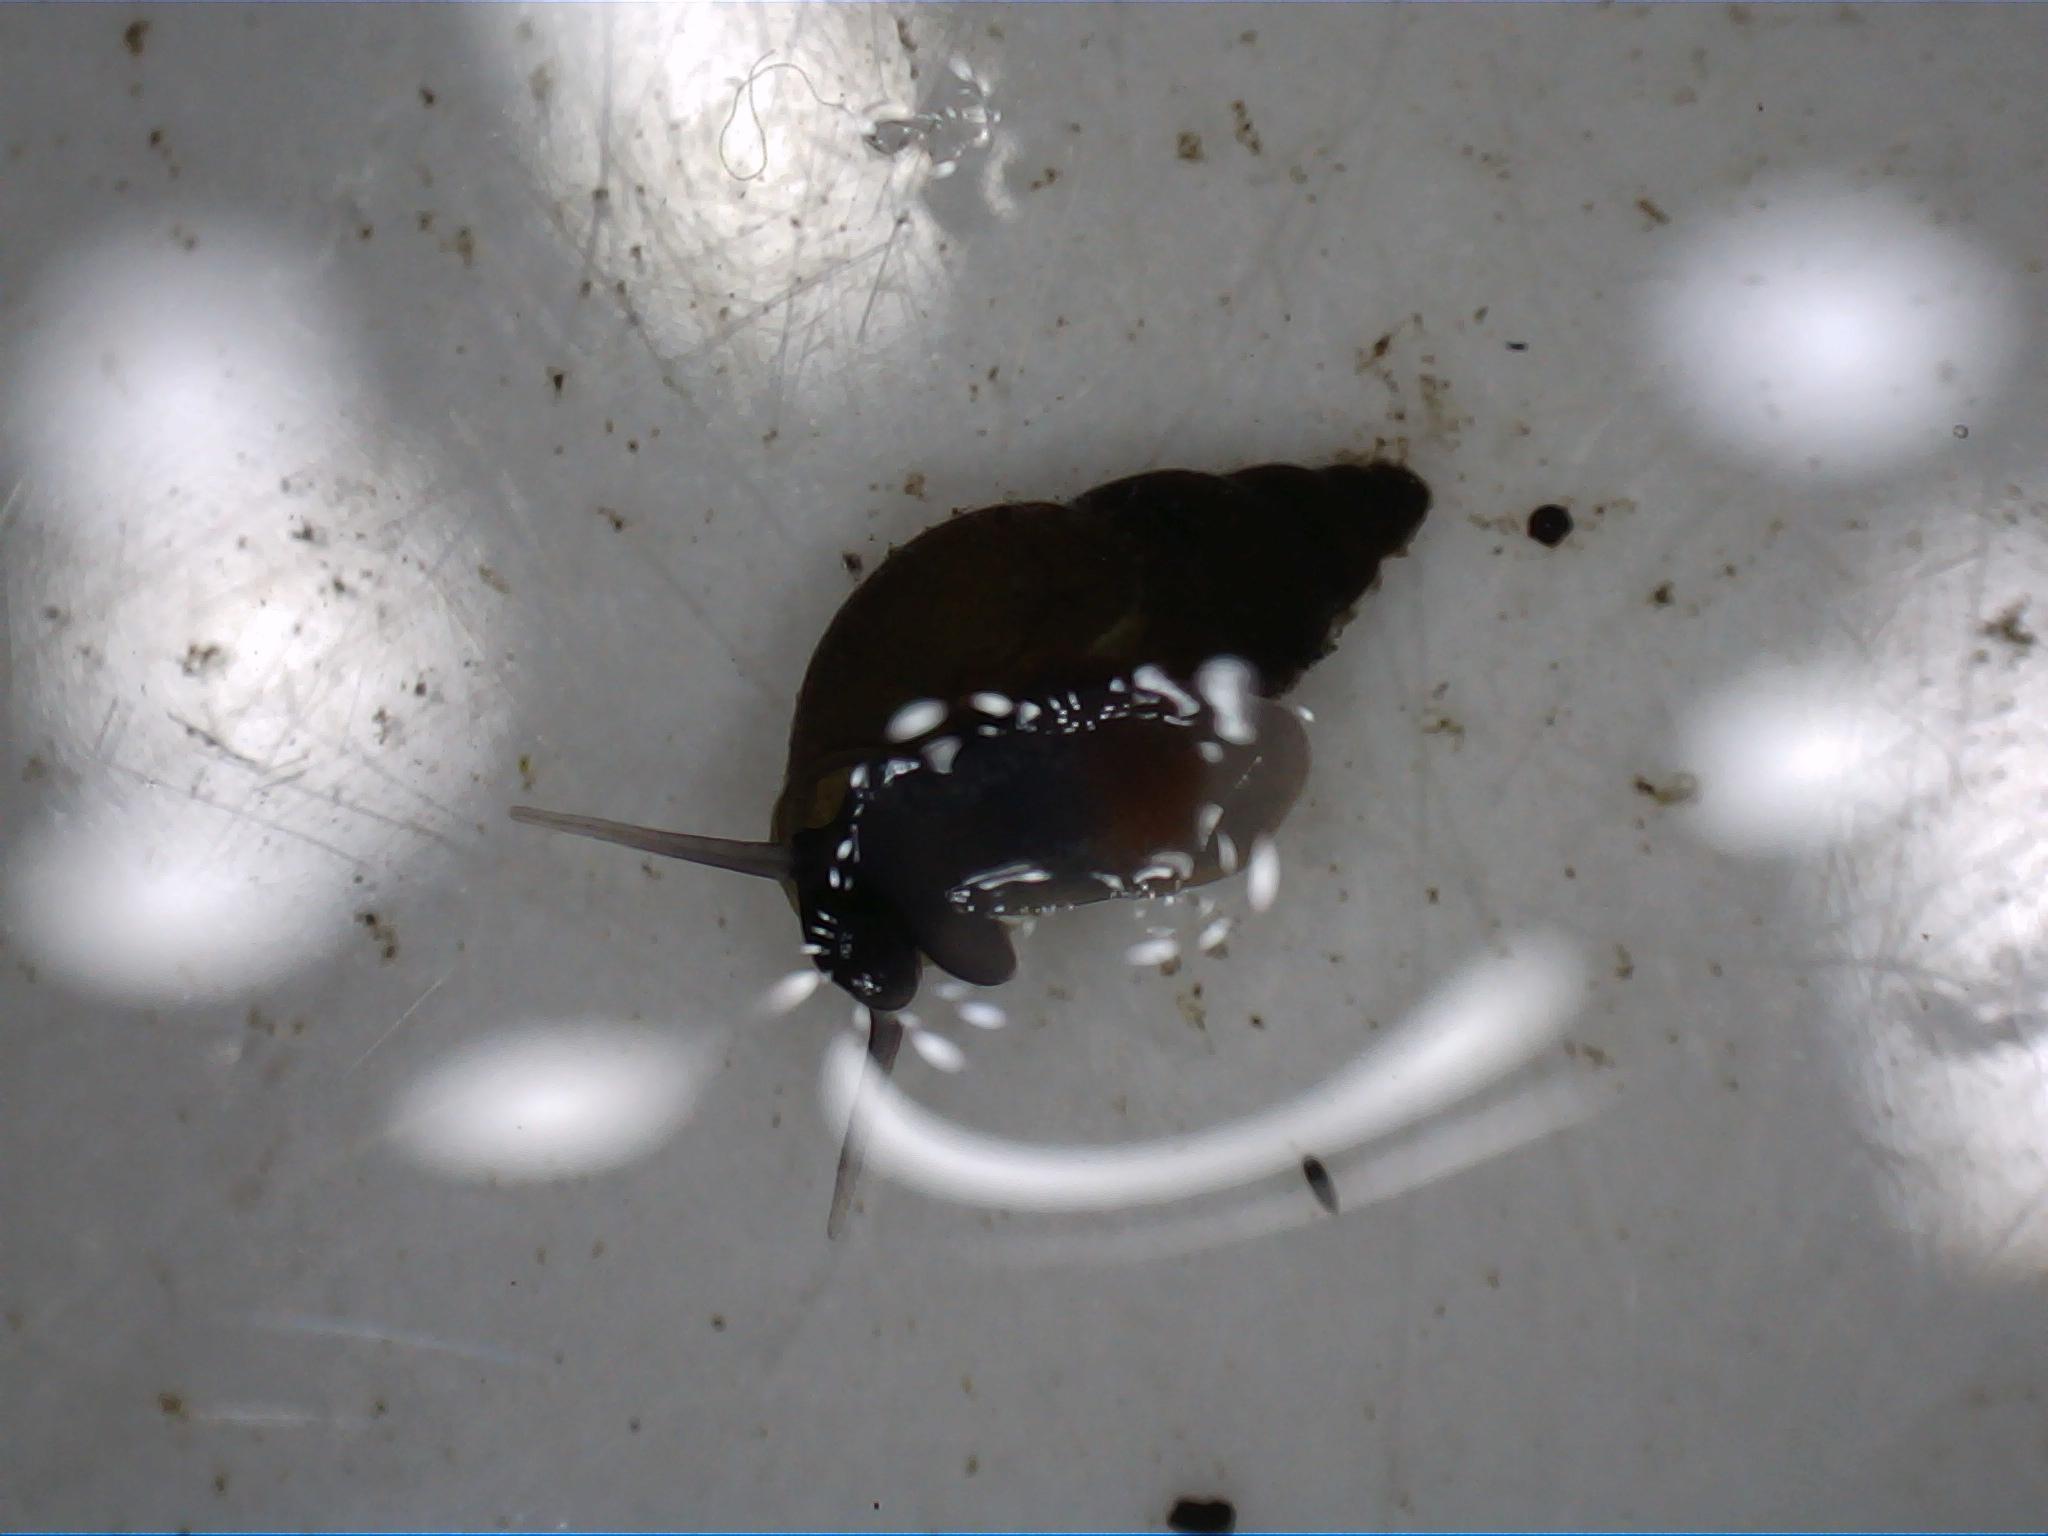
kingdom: Animalia
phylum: Mollusca
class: Gastropoda
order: Littorinimorpha
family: Tateidae
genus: Potamopyrgus
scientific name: Potamopyrgus antipodarum
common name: Jenkins' spire snail
